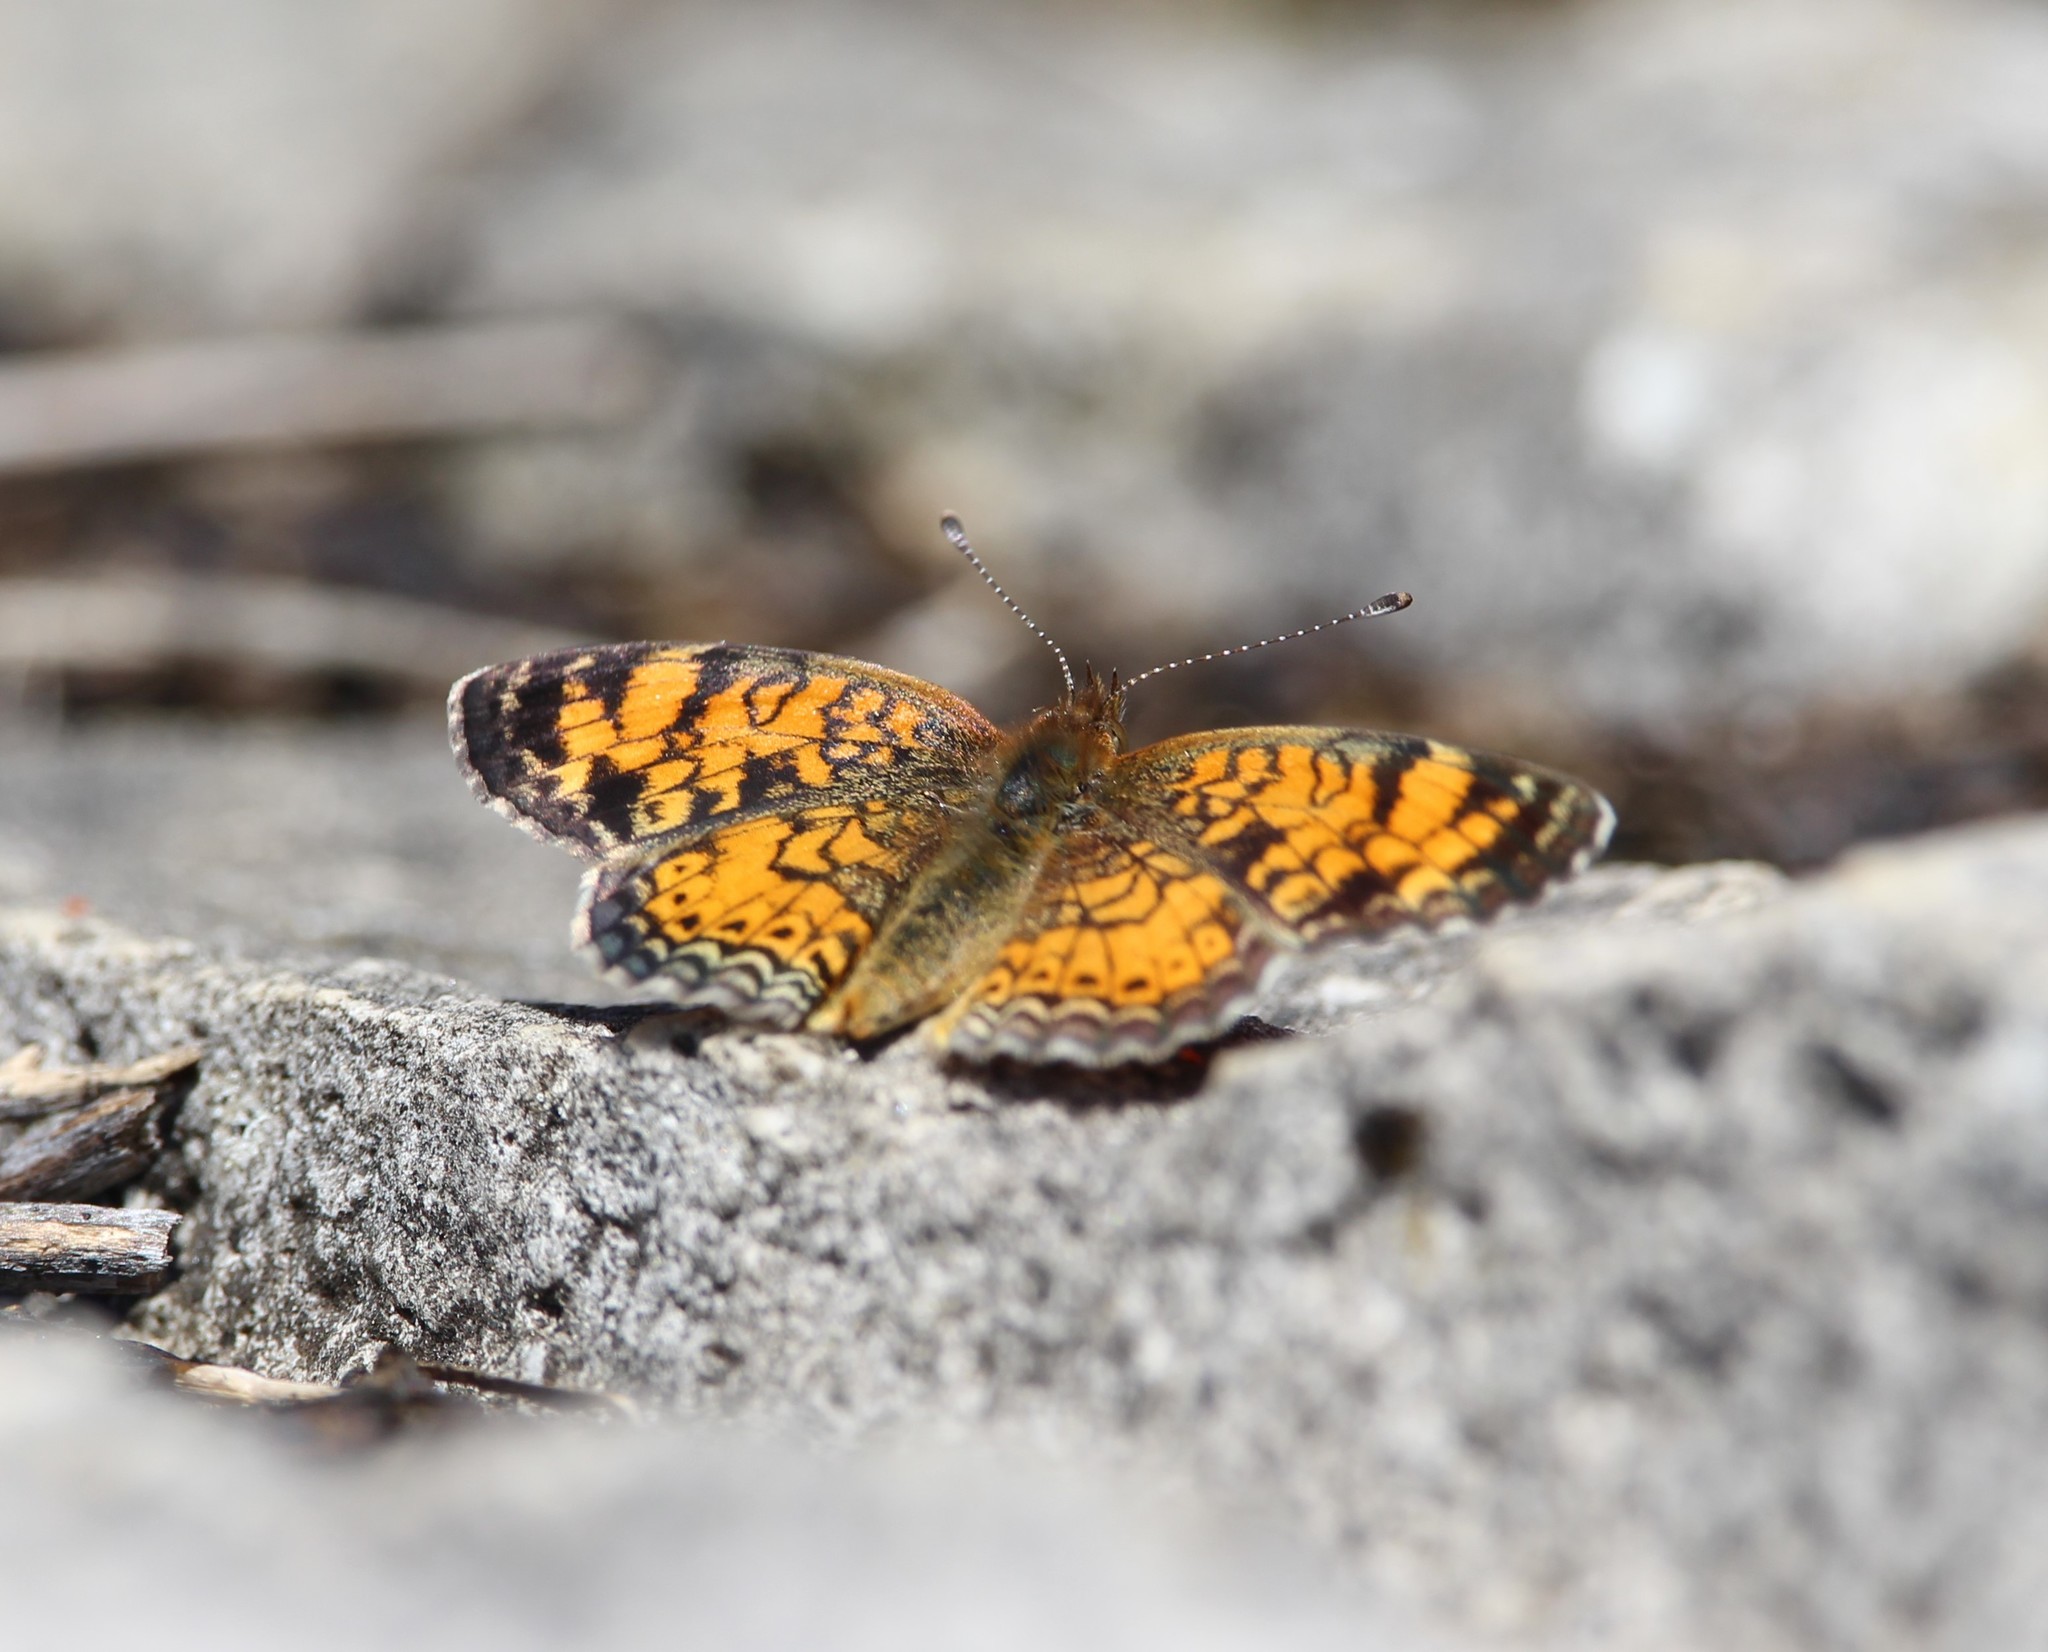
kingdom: Animalia
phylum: Arthropoda
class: Insecta
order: Lepidoptera
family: Nymphalidae
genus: Phyciodes
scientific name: Phyciodes tharos
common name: Pearl crescent
